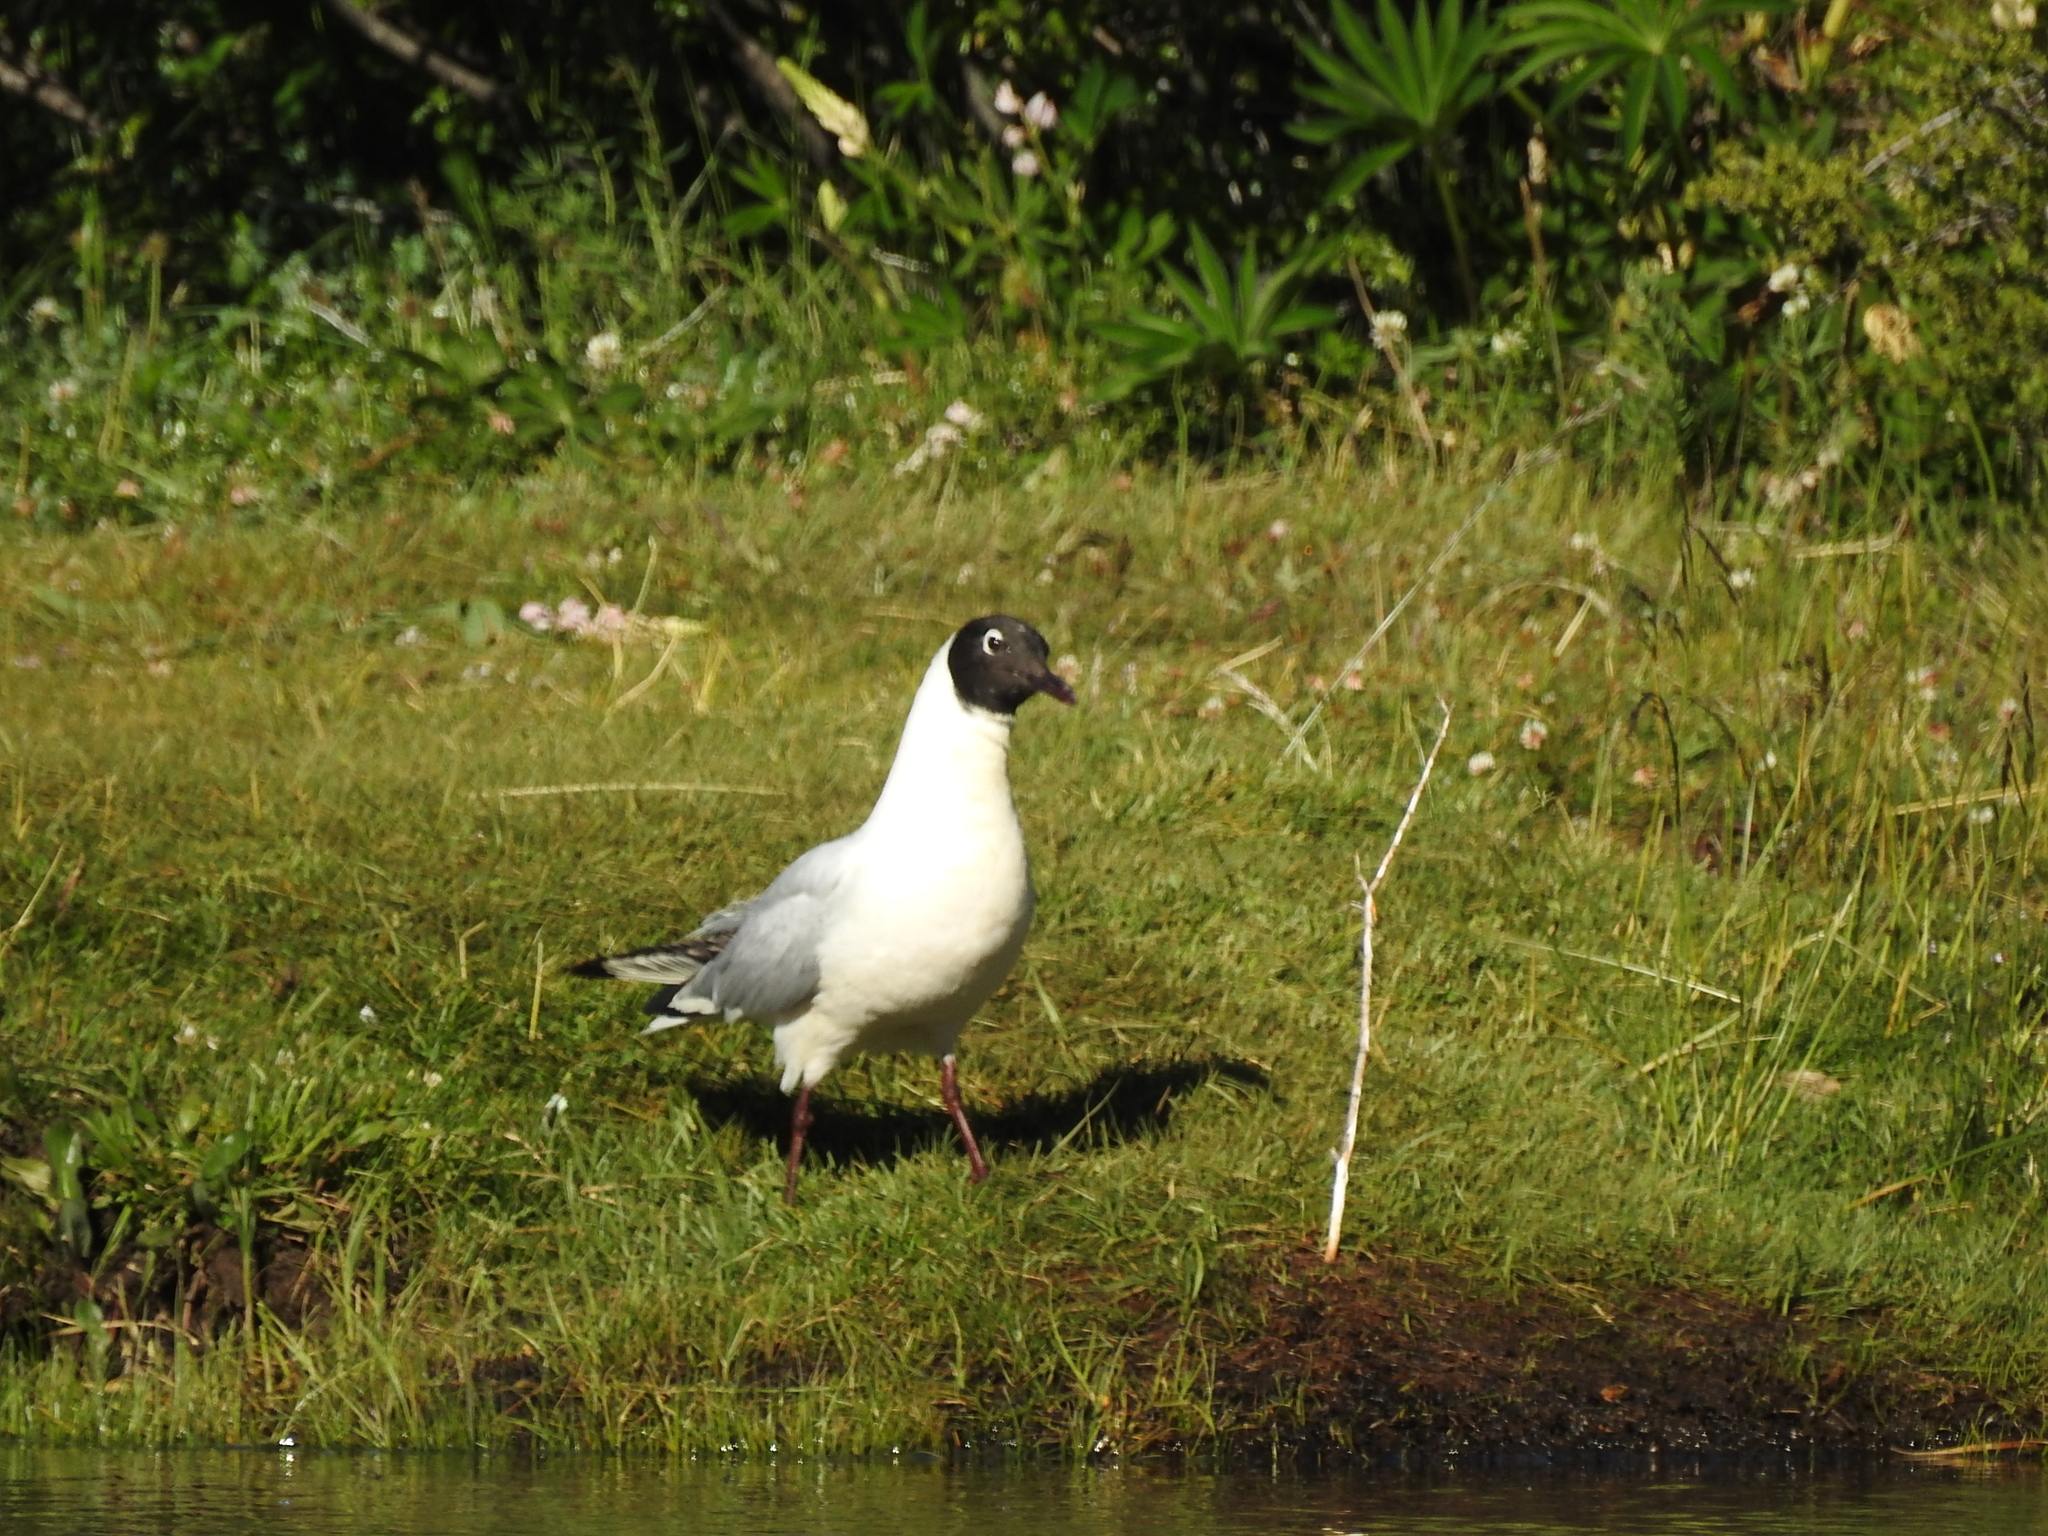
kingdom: Animalia
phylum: Chordata
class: Aves
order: Charadriiformes
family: Laridae
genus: Chroicocephalus
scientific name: Chroicocephalus serranus
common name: Andean gull
